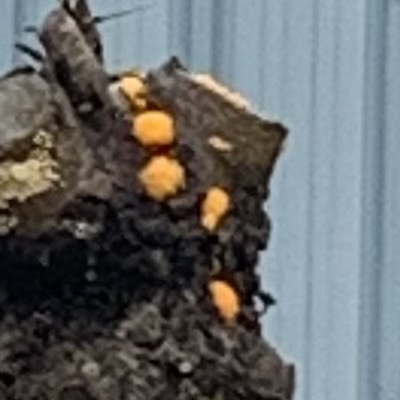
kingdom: Fungi
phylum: Basidiomycota
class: Dacrymycetes
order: Dacrymycetales
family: Dacrymycetaceae
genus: Dacrymyces
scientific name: Dacrymyces chrysospermus
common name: Orange jelly spot
